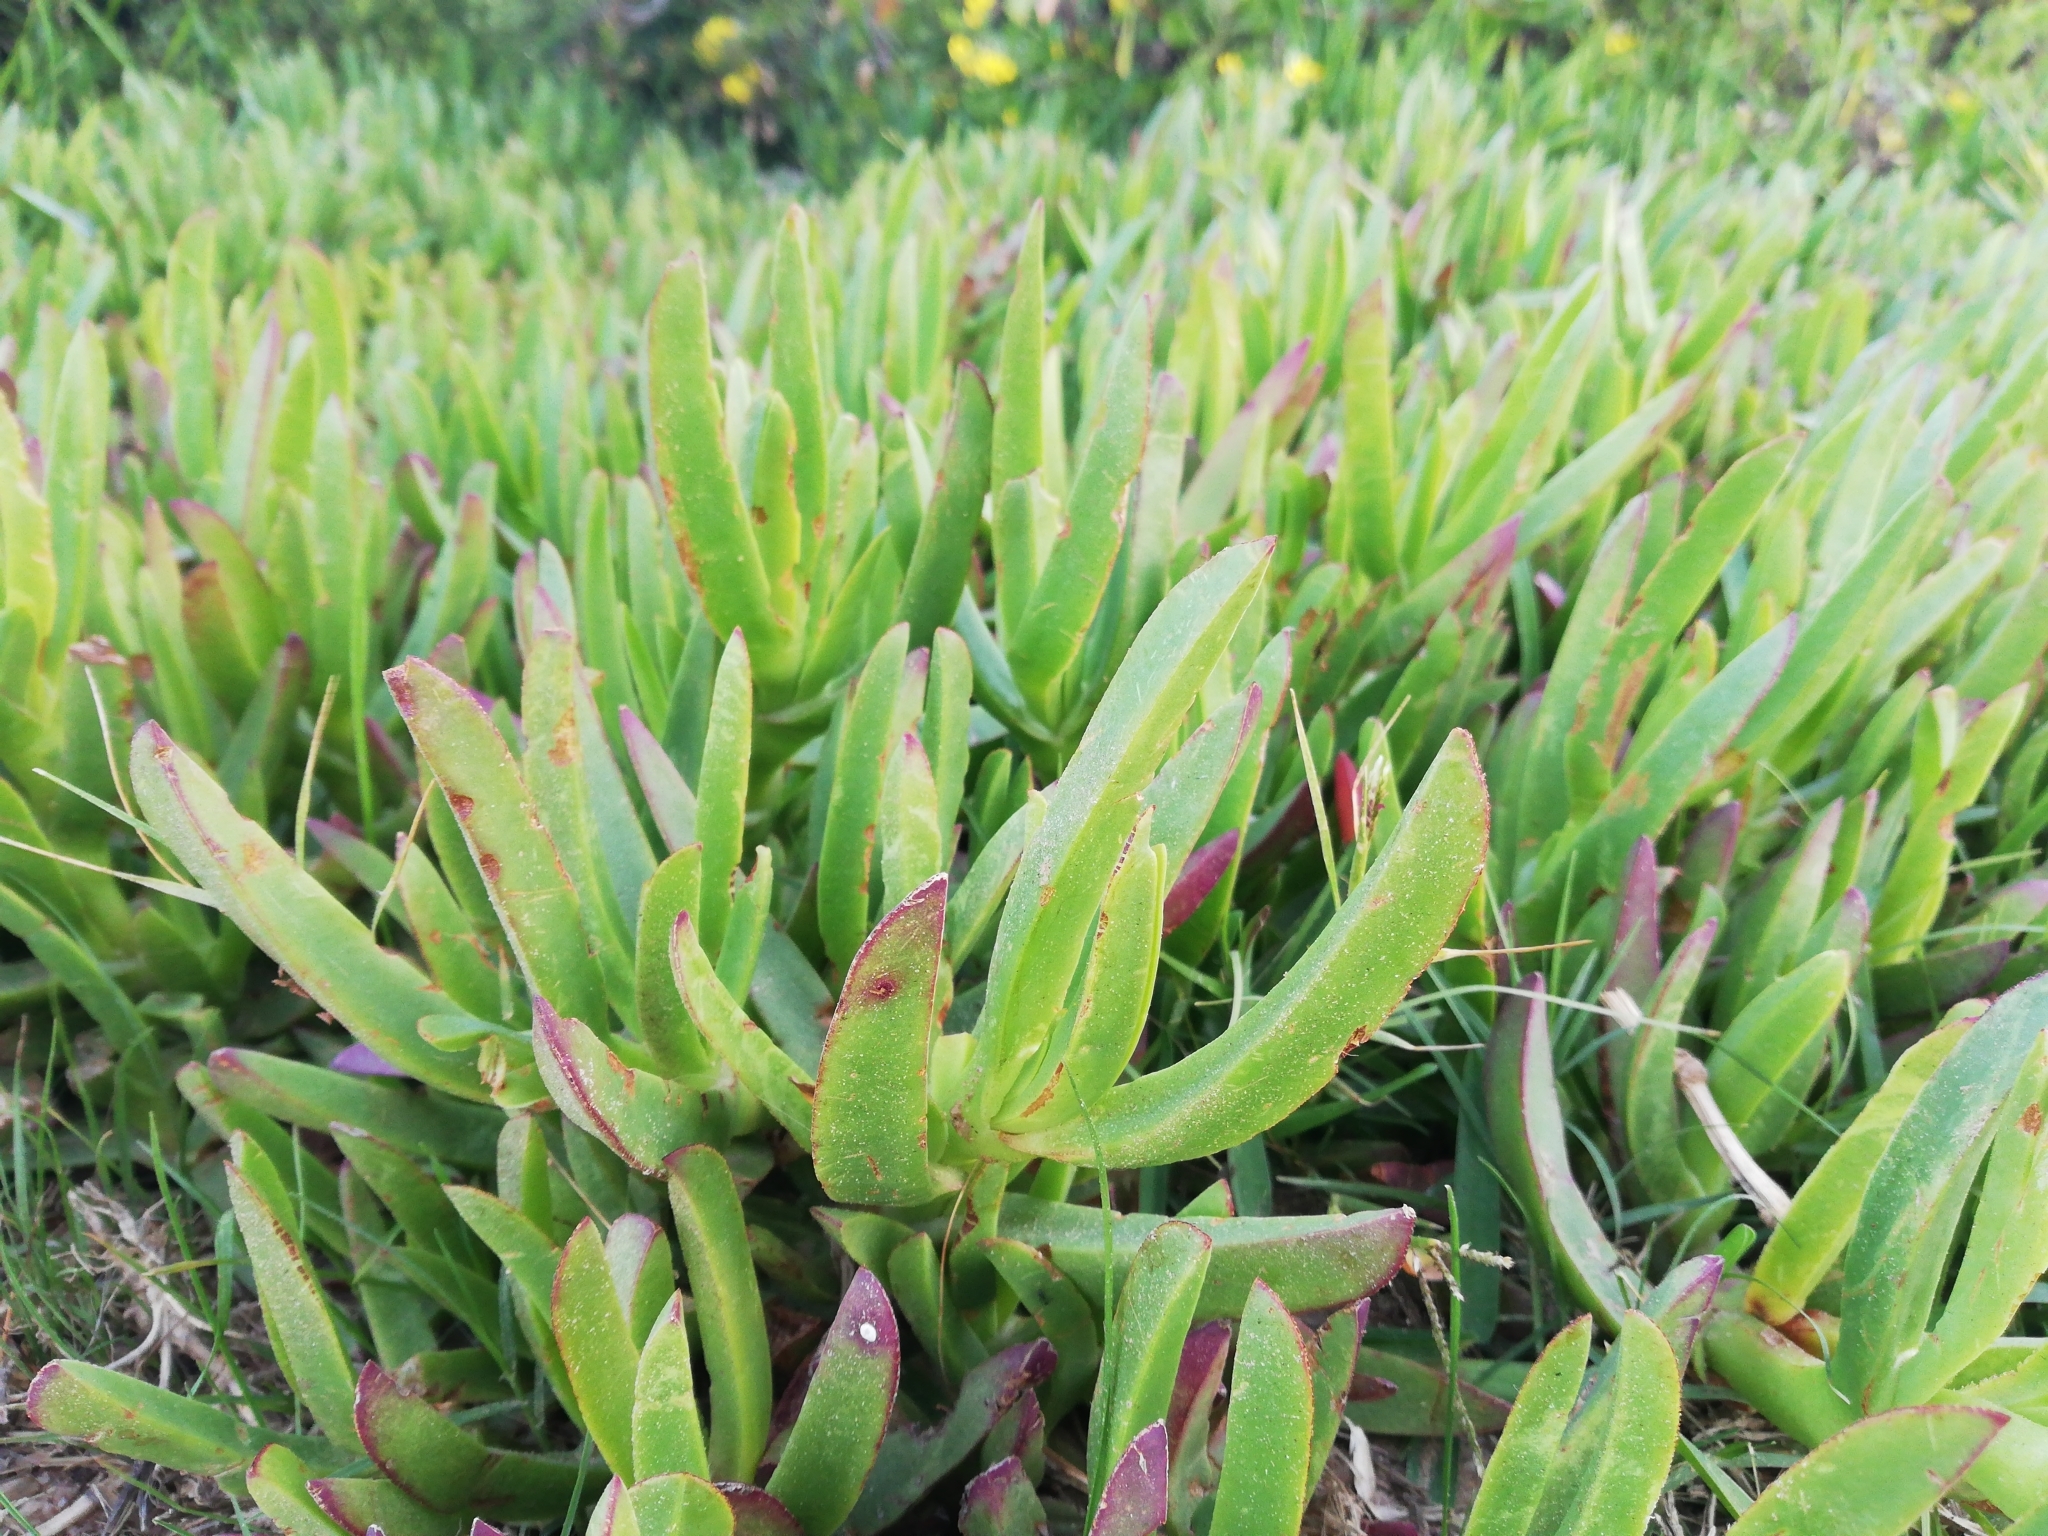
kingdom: Plantae
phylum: Tracheophyta
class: Magnoliopsida
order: Caryophyllales
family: Aizoaceae
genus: Carpobrotus
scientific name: Carpobrotus edulis
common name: Hottentot-fig
